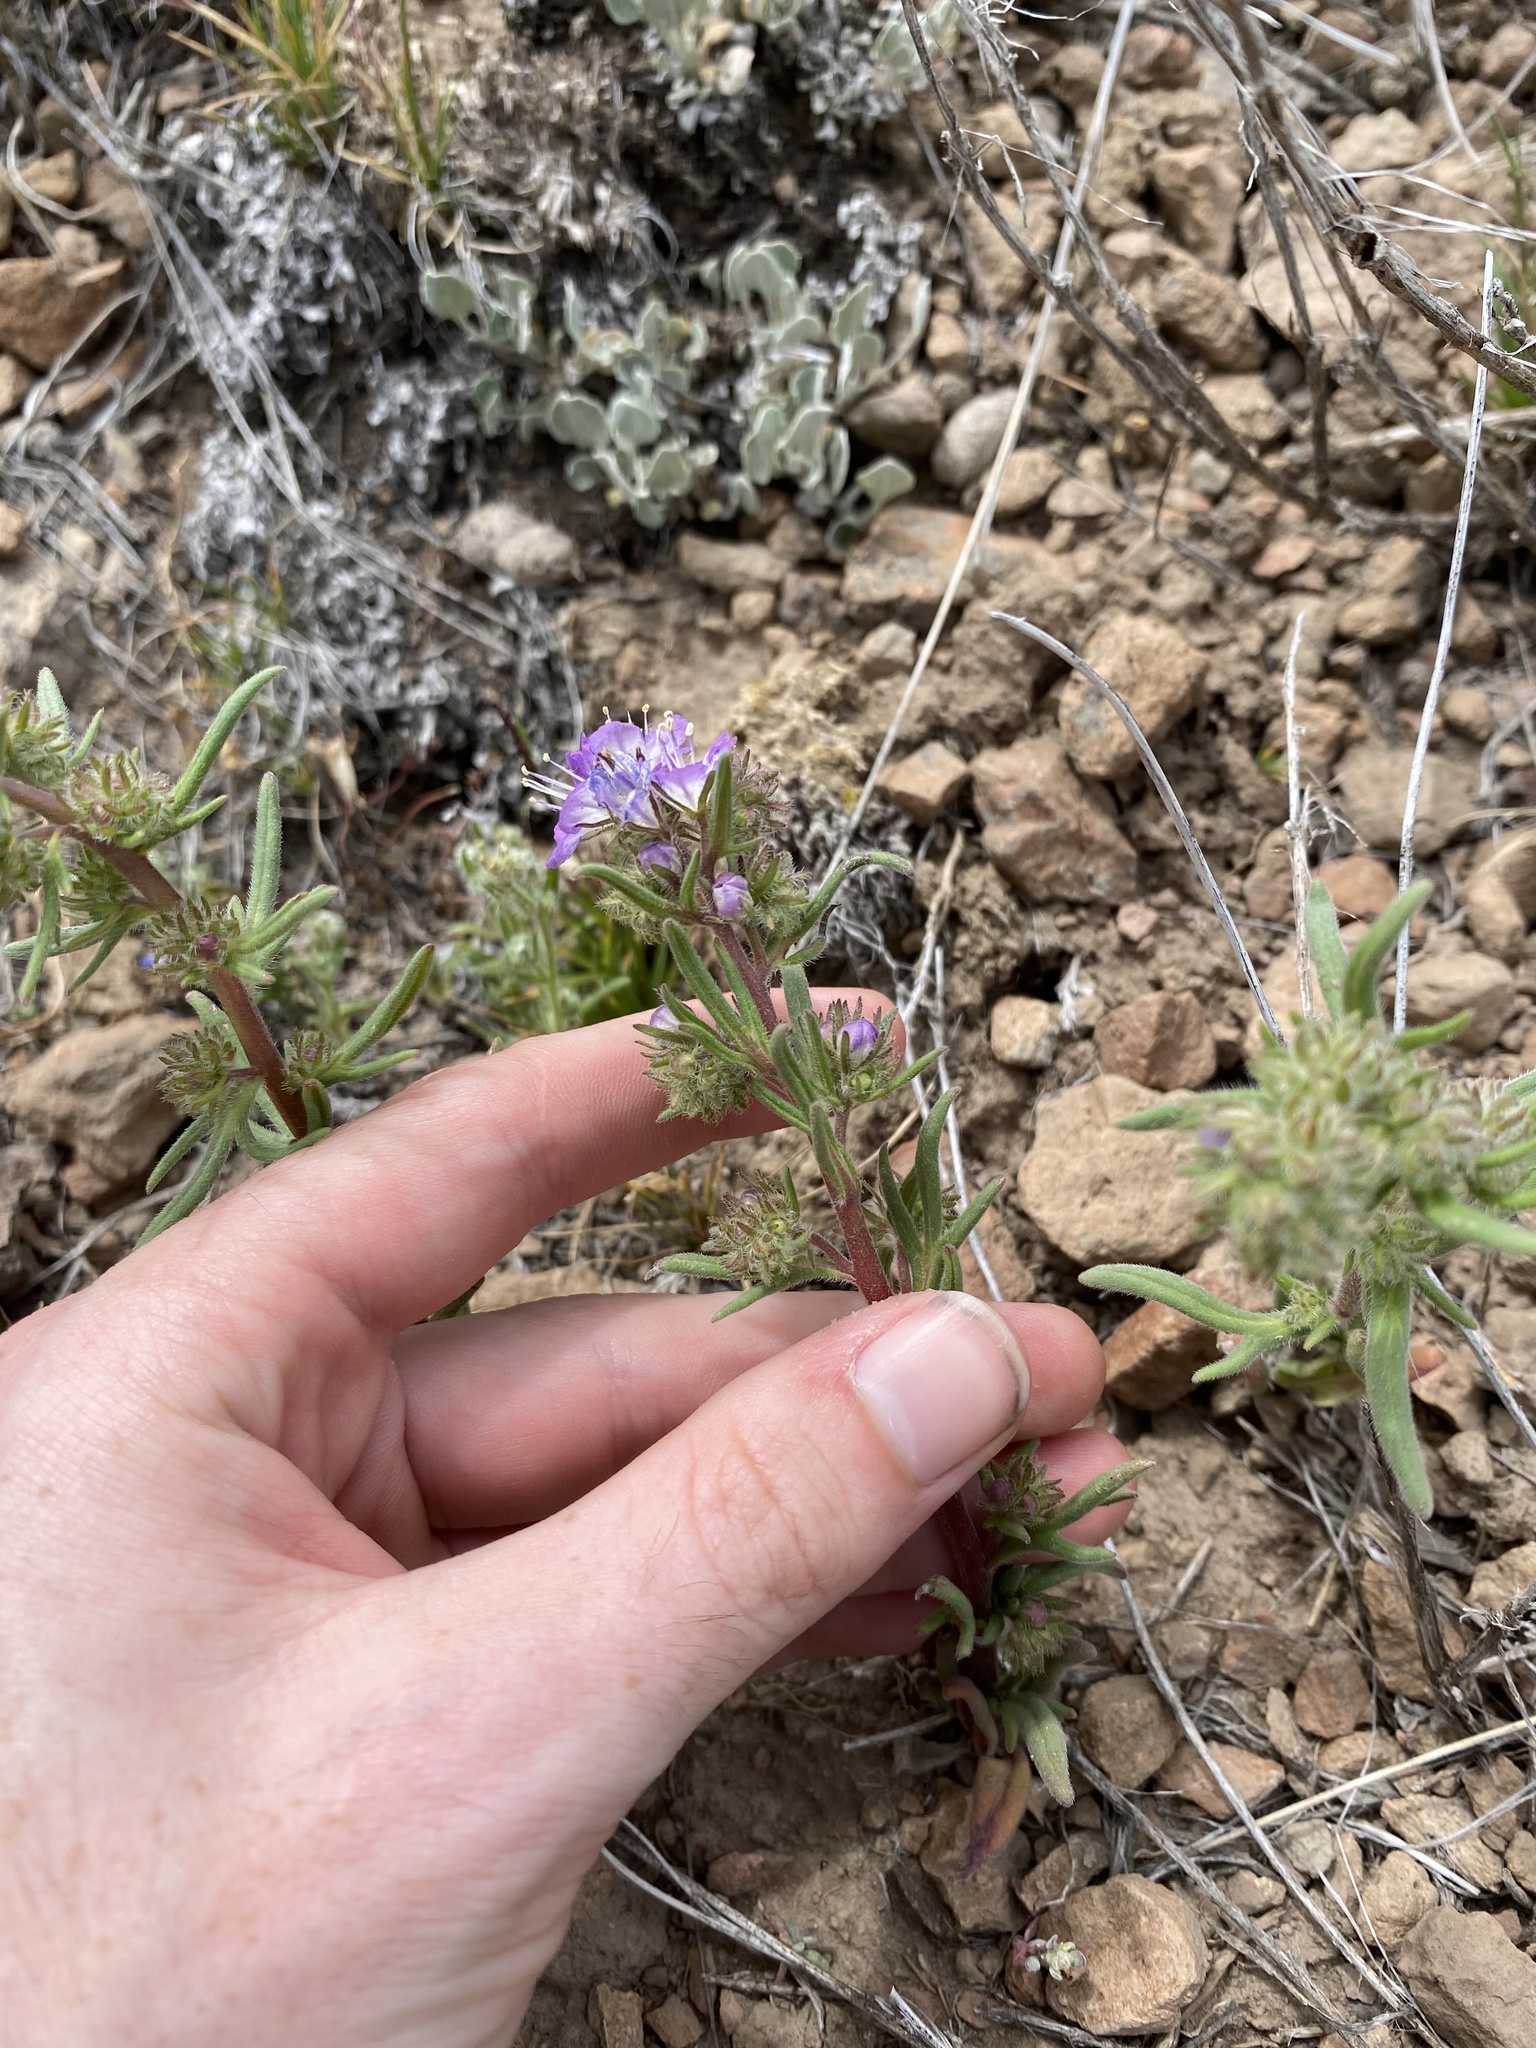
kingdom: Plantae
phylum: Tracheophyta
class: Magnoliopsida
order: Boraginales
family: Hydrophyllaceae
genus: Phacelia
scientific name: Phacelia linearis
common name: Linear-leaved phacelia
